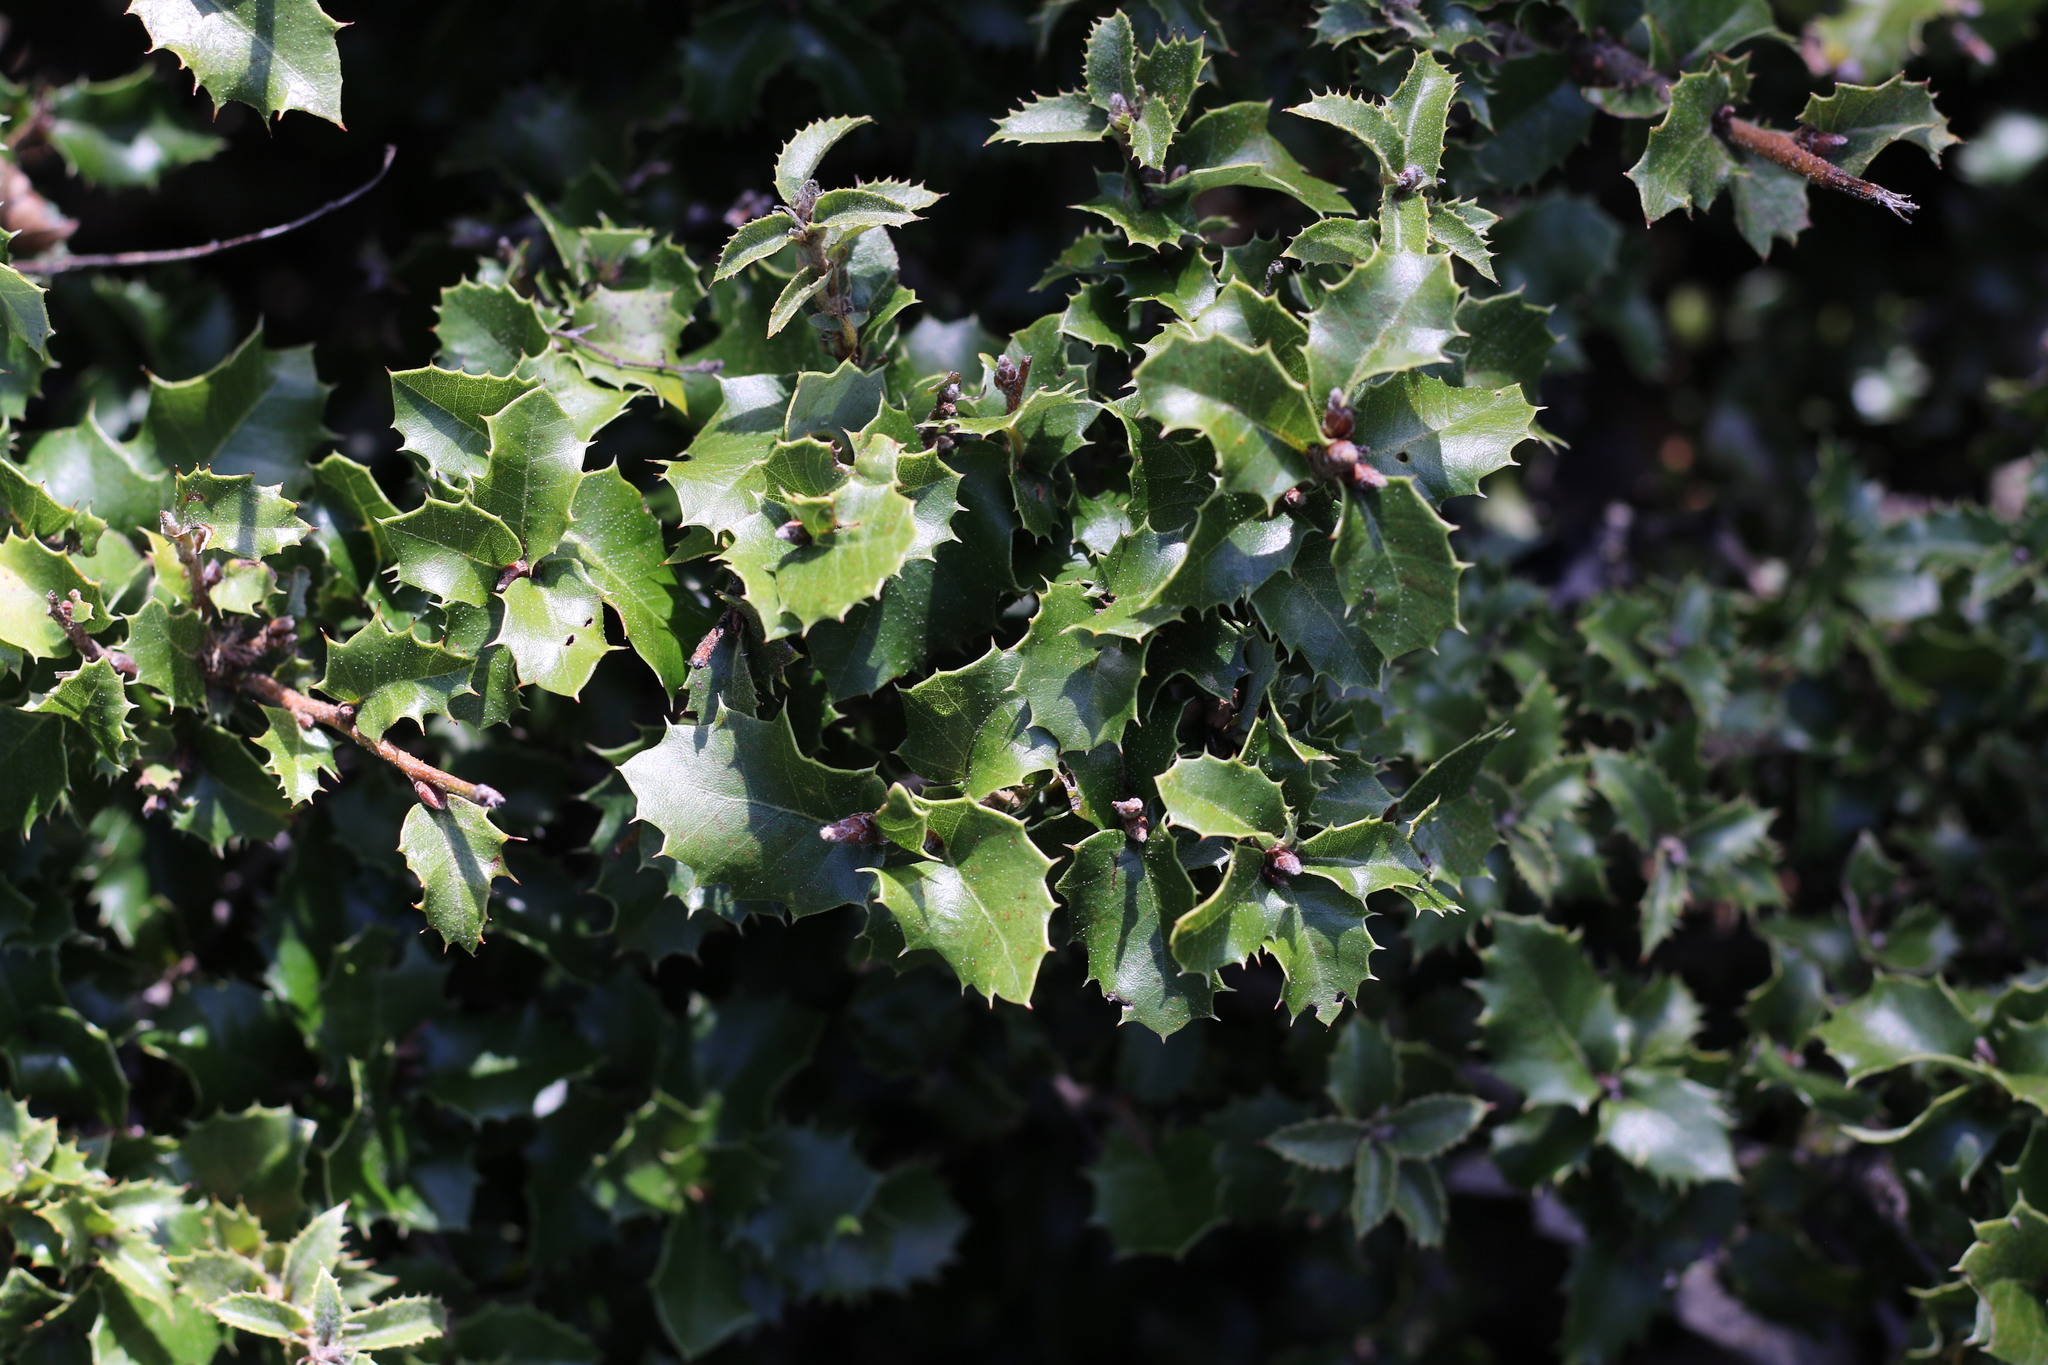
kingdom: Plantae
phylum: Tracheophyta
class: Magnoliopsida
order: Fagales
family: Fagaceae
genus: Quercus
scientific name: Quercus chrysolepis
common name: Canyon live oak
